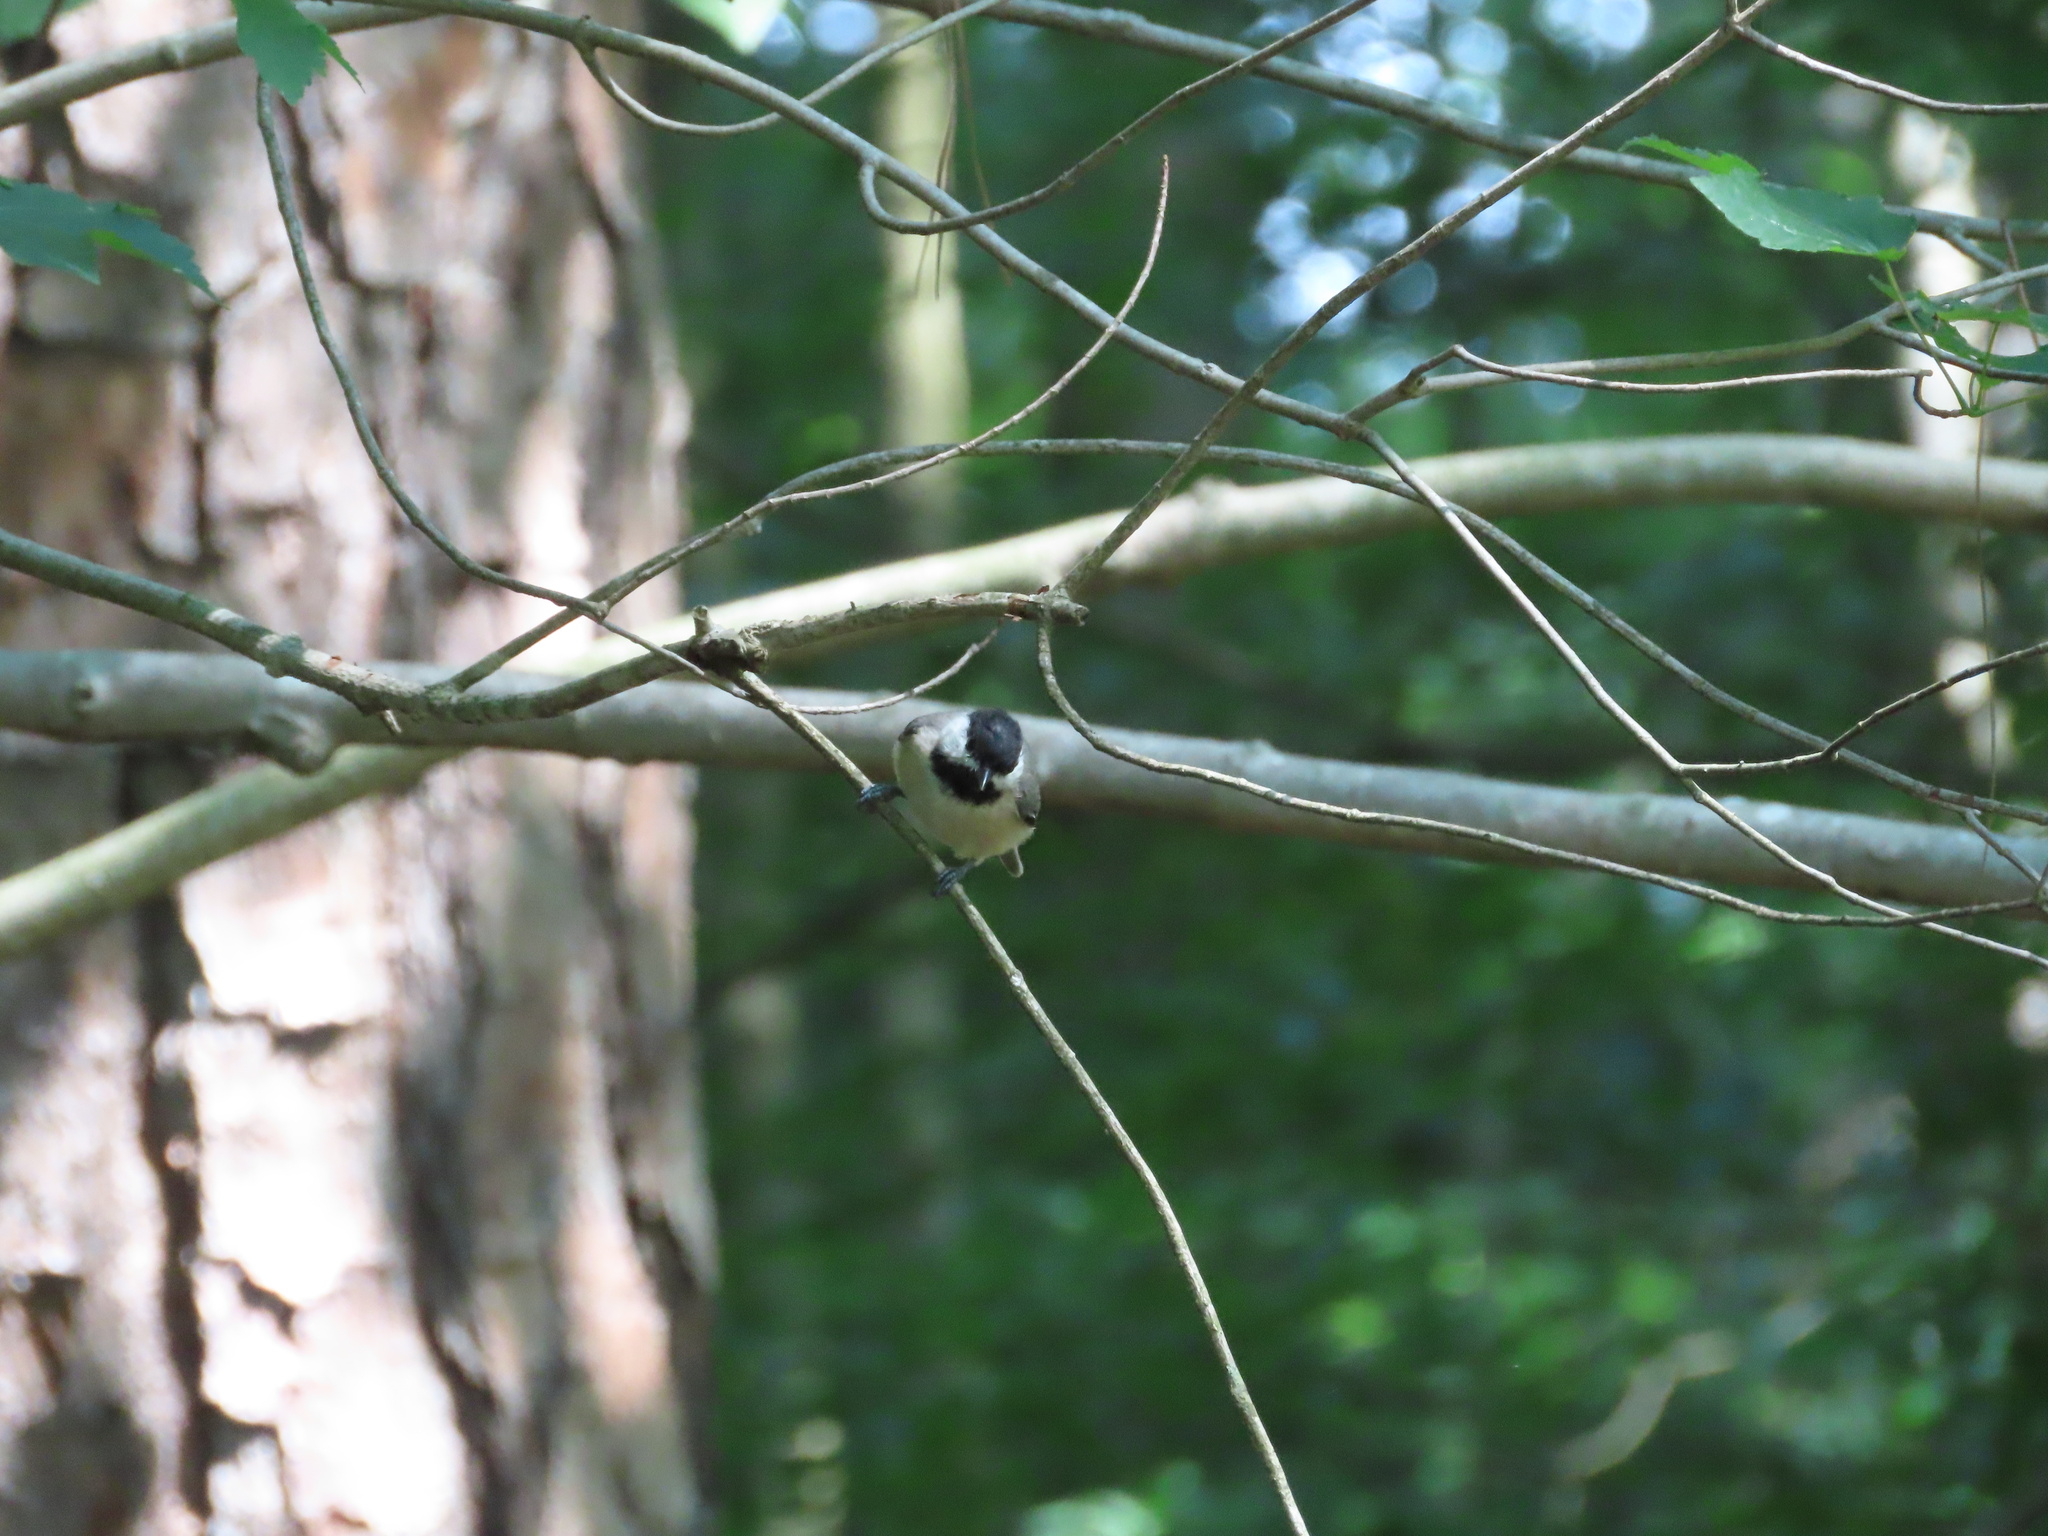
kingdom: Animalia
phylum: Chordata
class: Aves
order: Passeriformes
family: Paridae
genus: Poecile
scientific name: Poecile carolinensis
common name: Carolina chickadee
